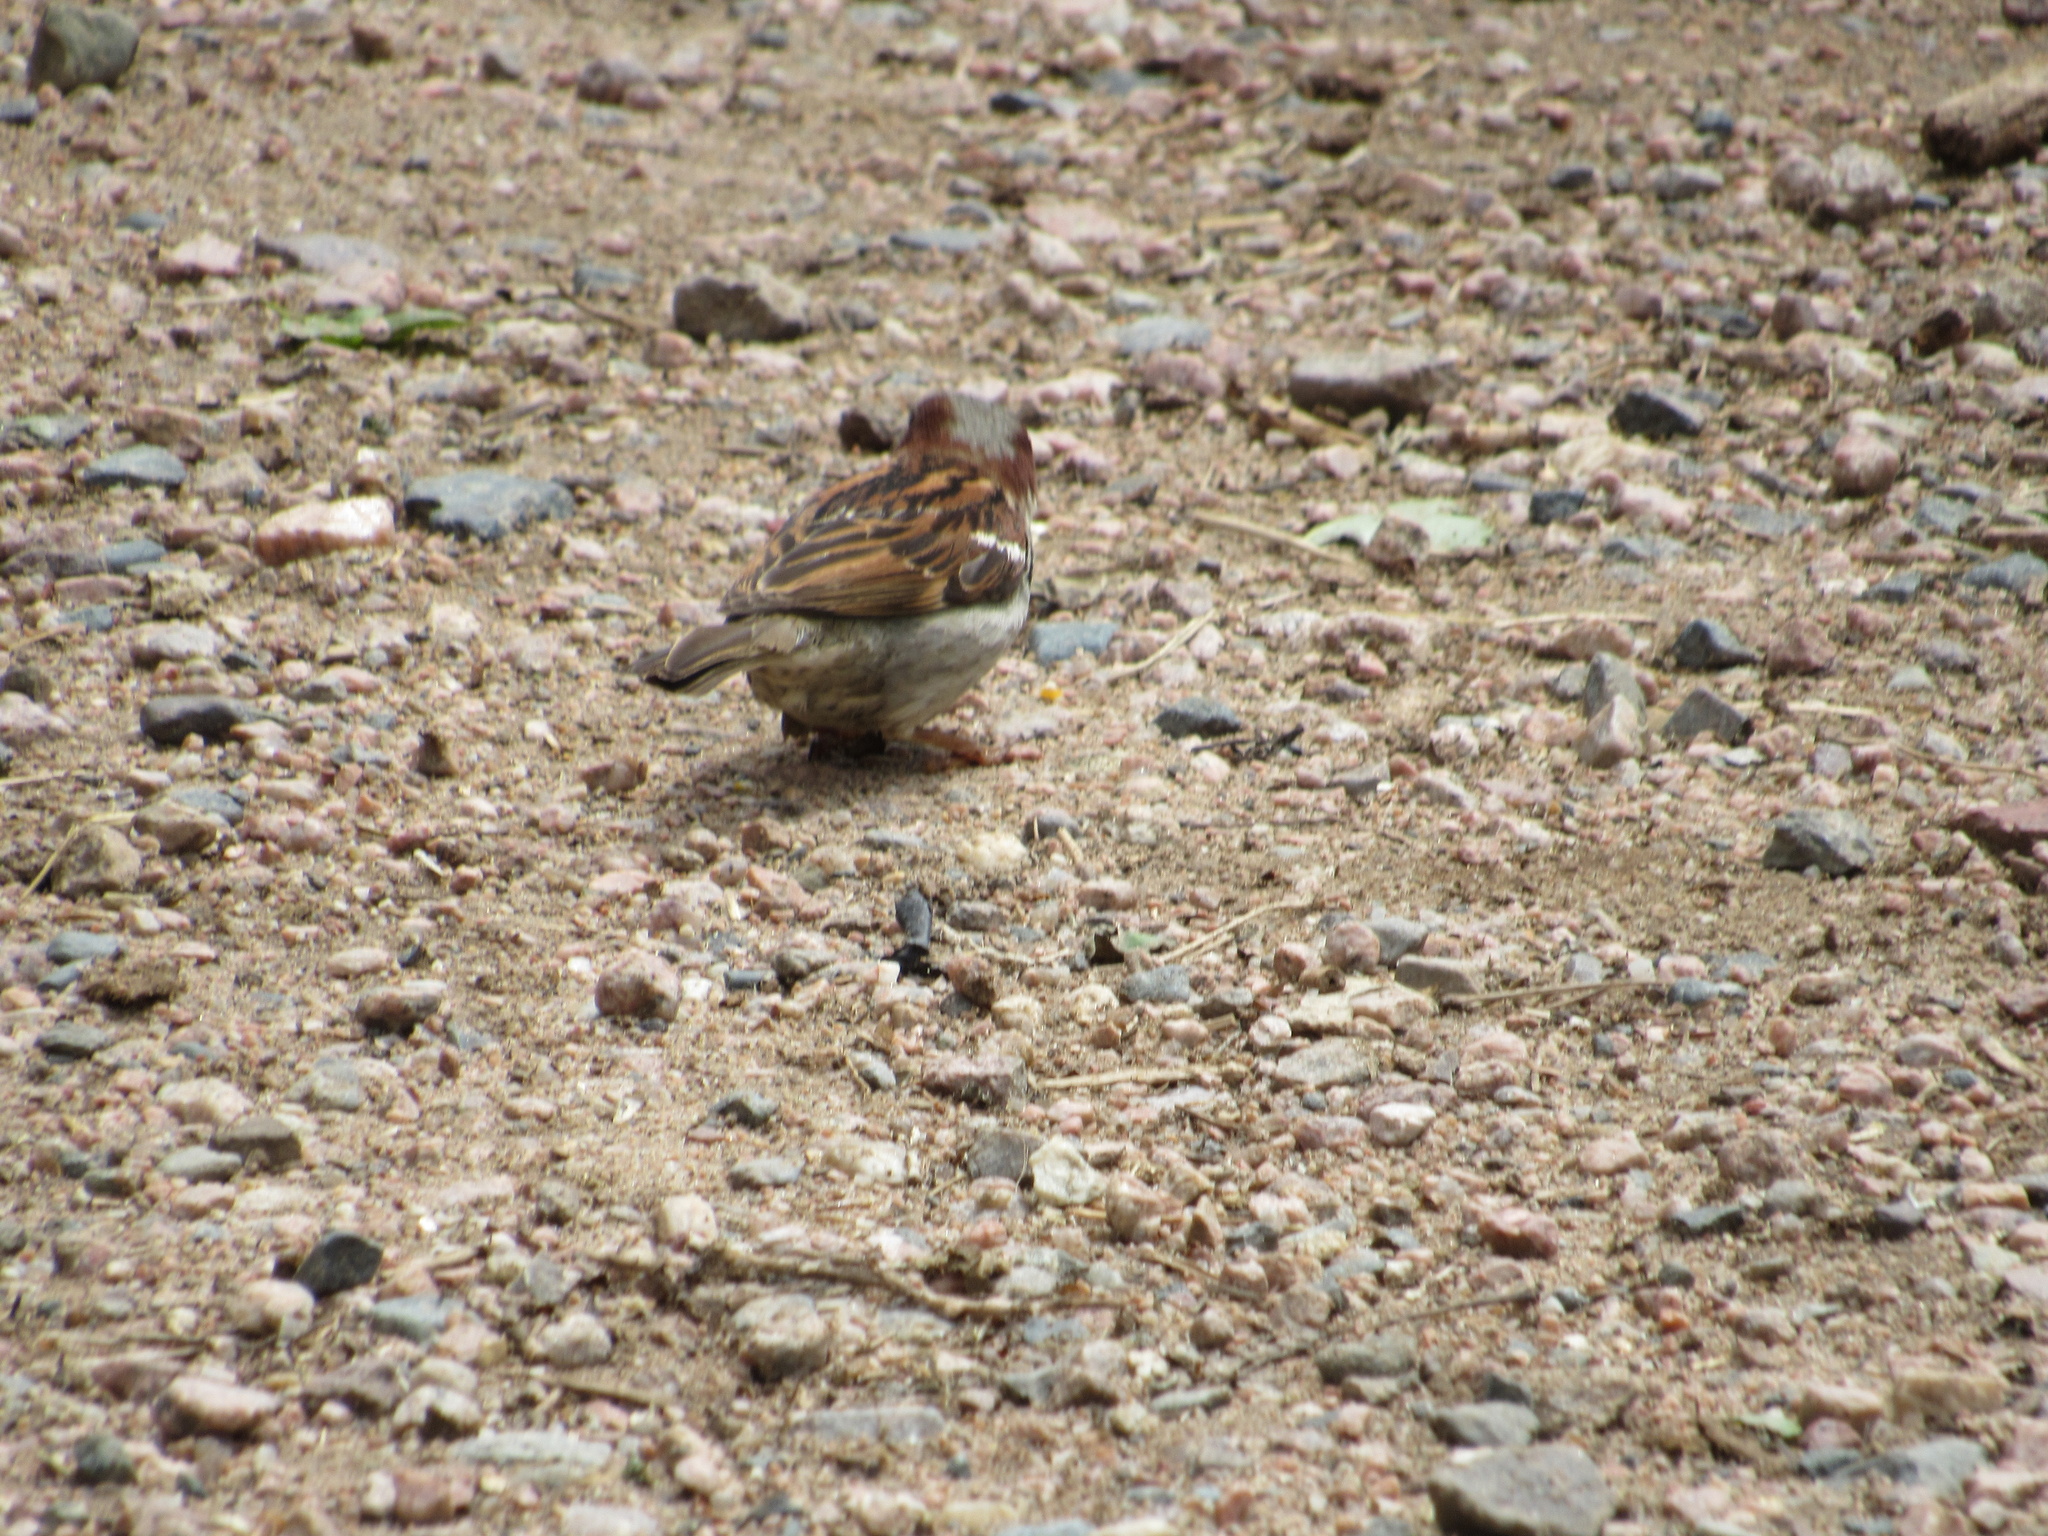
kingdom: Animalia
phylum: Chordata
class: Aves
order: Passeriformes
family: Passeridae
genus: Passer
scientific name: Passer domesticus
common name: House sparrow
